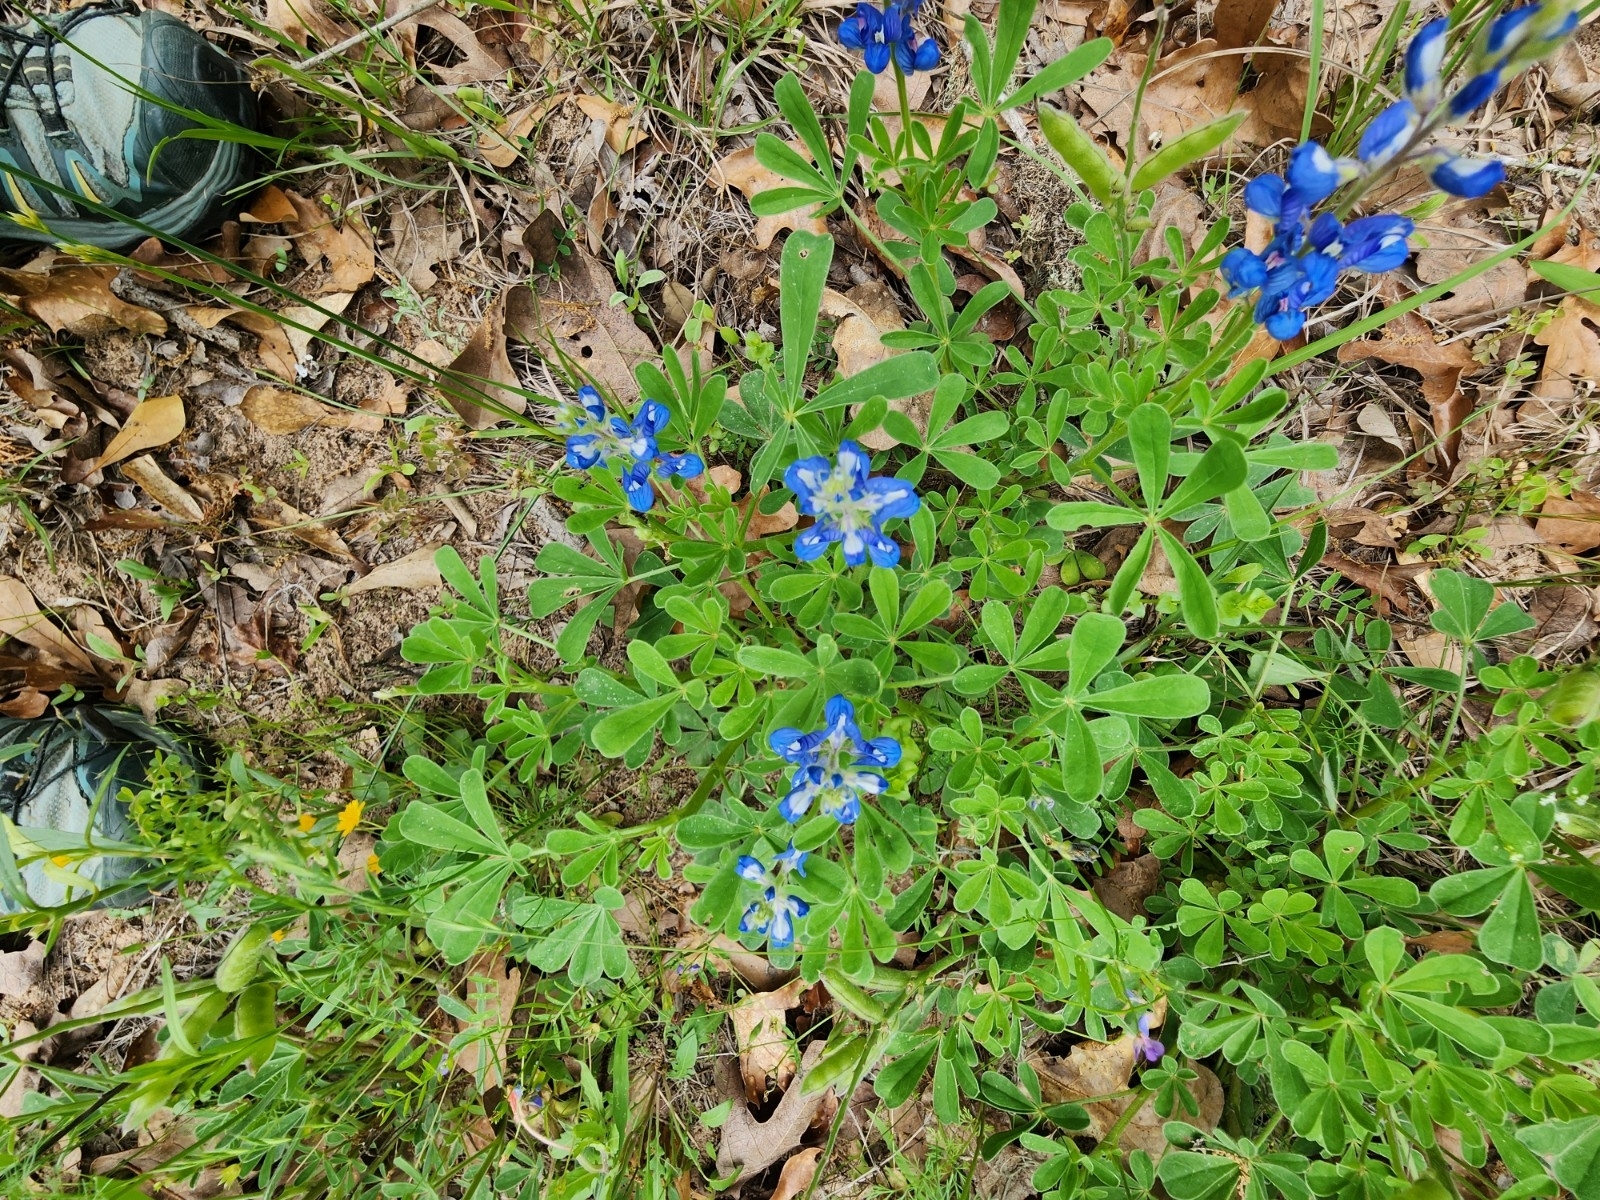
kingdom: Plantae
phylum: Tracheophyta
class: Magnoliopsida
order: Fabales
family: Fabaceae
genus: Lupinus
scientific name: Lupinus subcarnosus
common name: Texas bluebonnet
